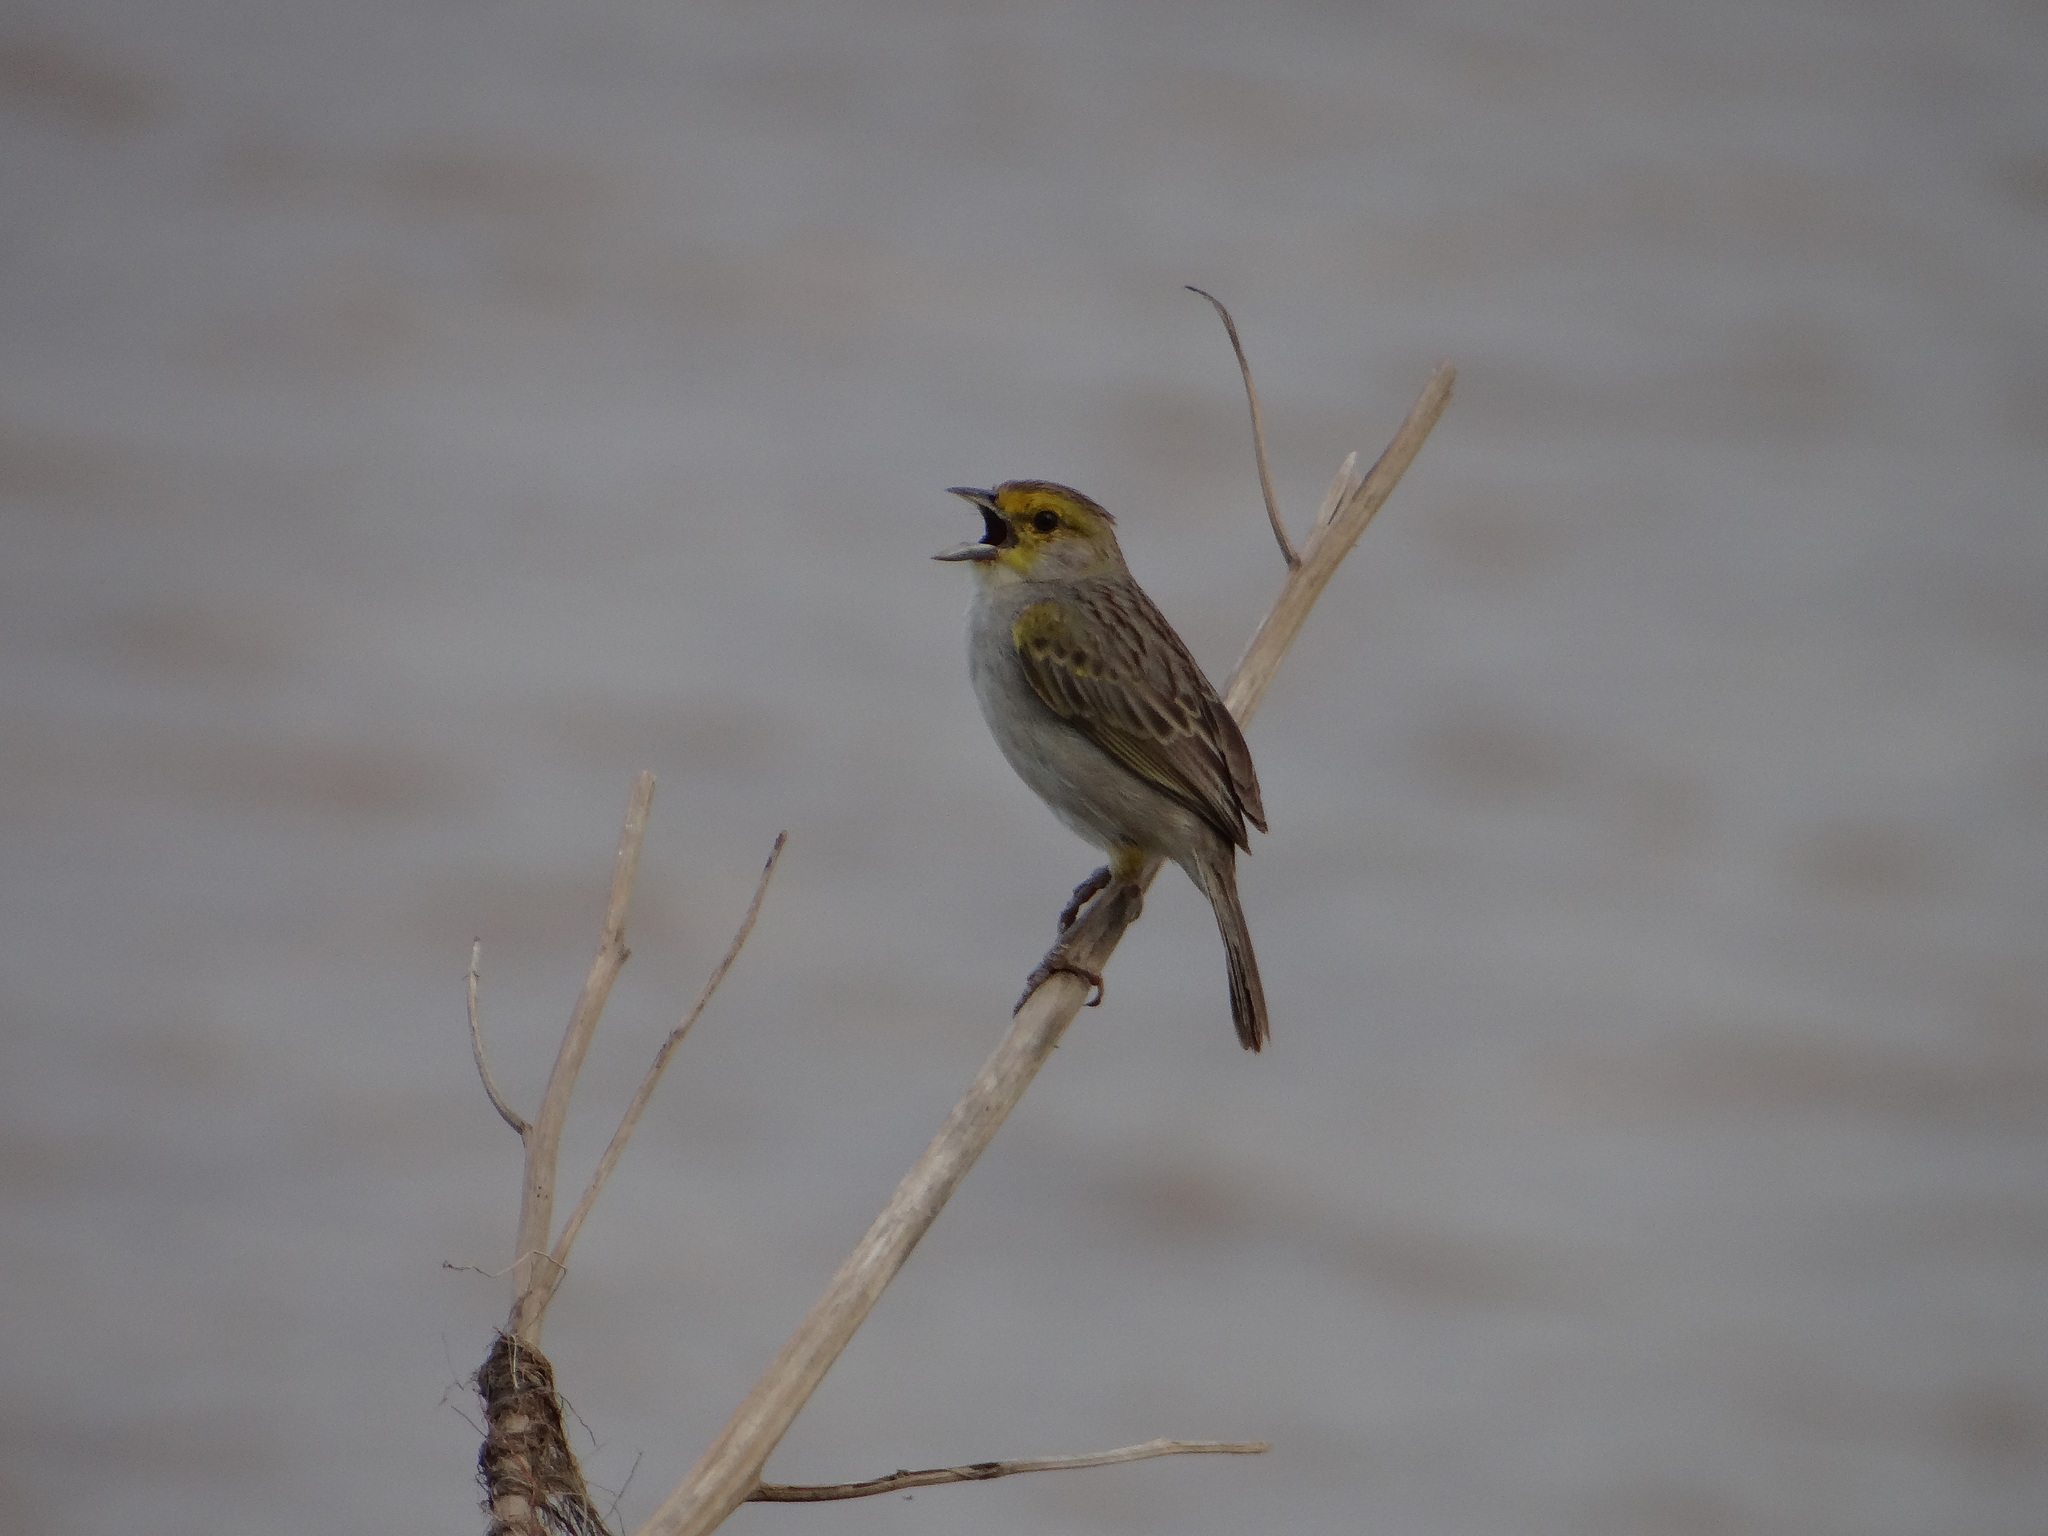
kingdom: Animalia
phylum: Chordata
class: Aves
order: Passeriformes
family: Passerellidae
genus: Ammodramus
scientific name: Ammodramus aurifrons
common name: Yellow-browed sparrow
